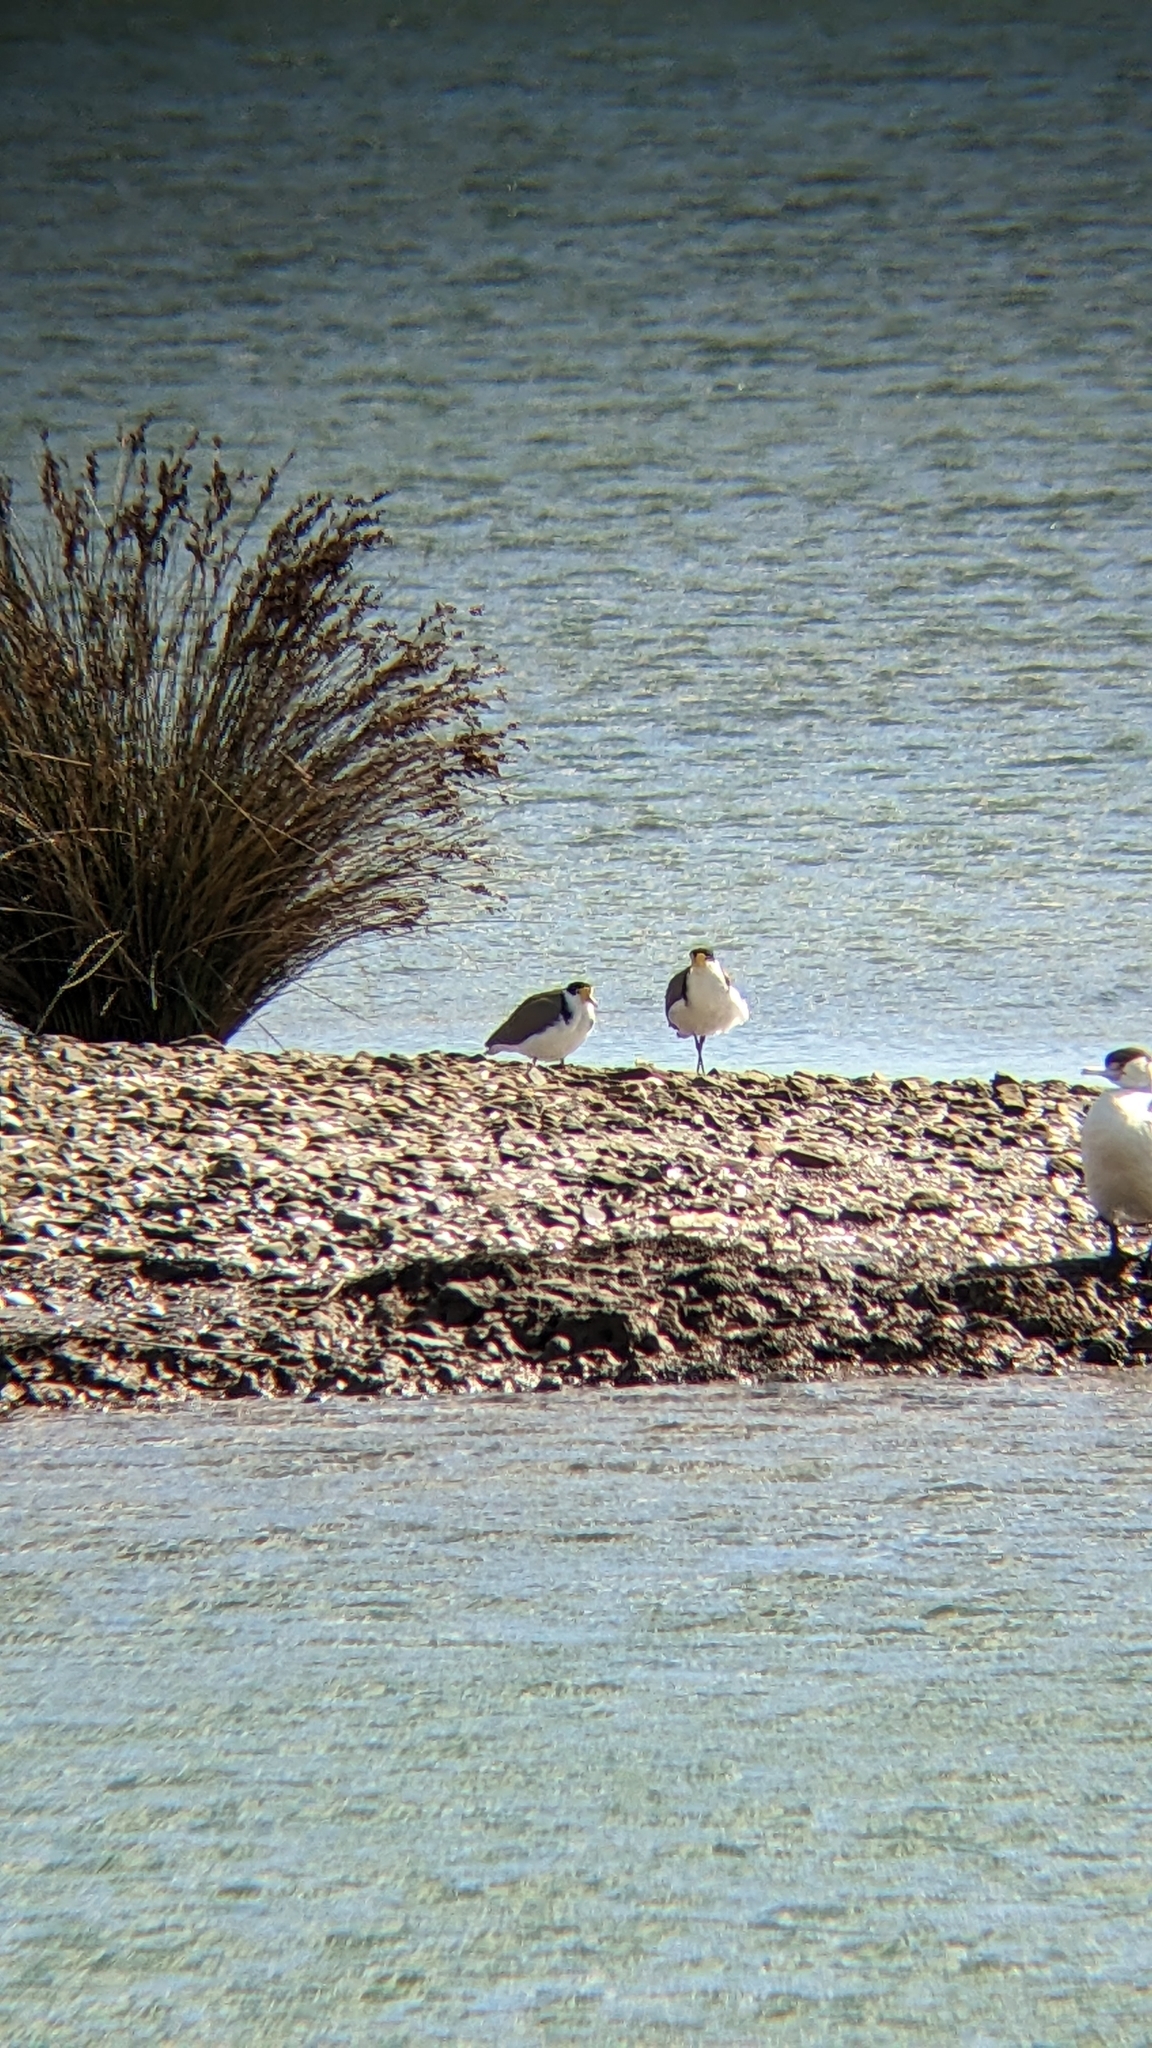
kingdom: Animalia
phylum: Chordata
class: Aves
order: Charadriiformes
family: Charadriidae
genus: Vanellus
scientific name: Vanellus miles
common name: Masked lapwing
